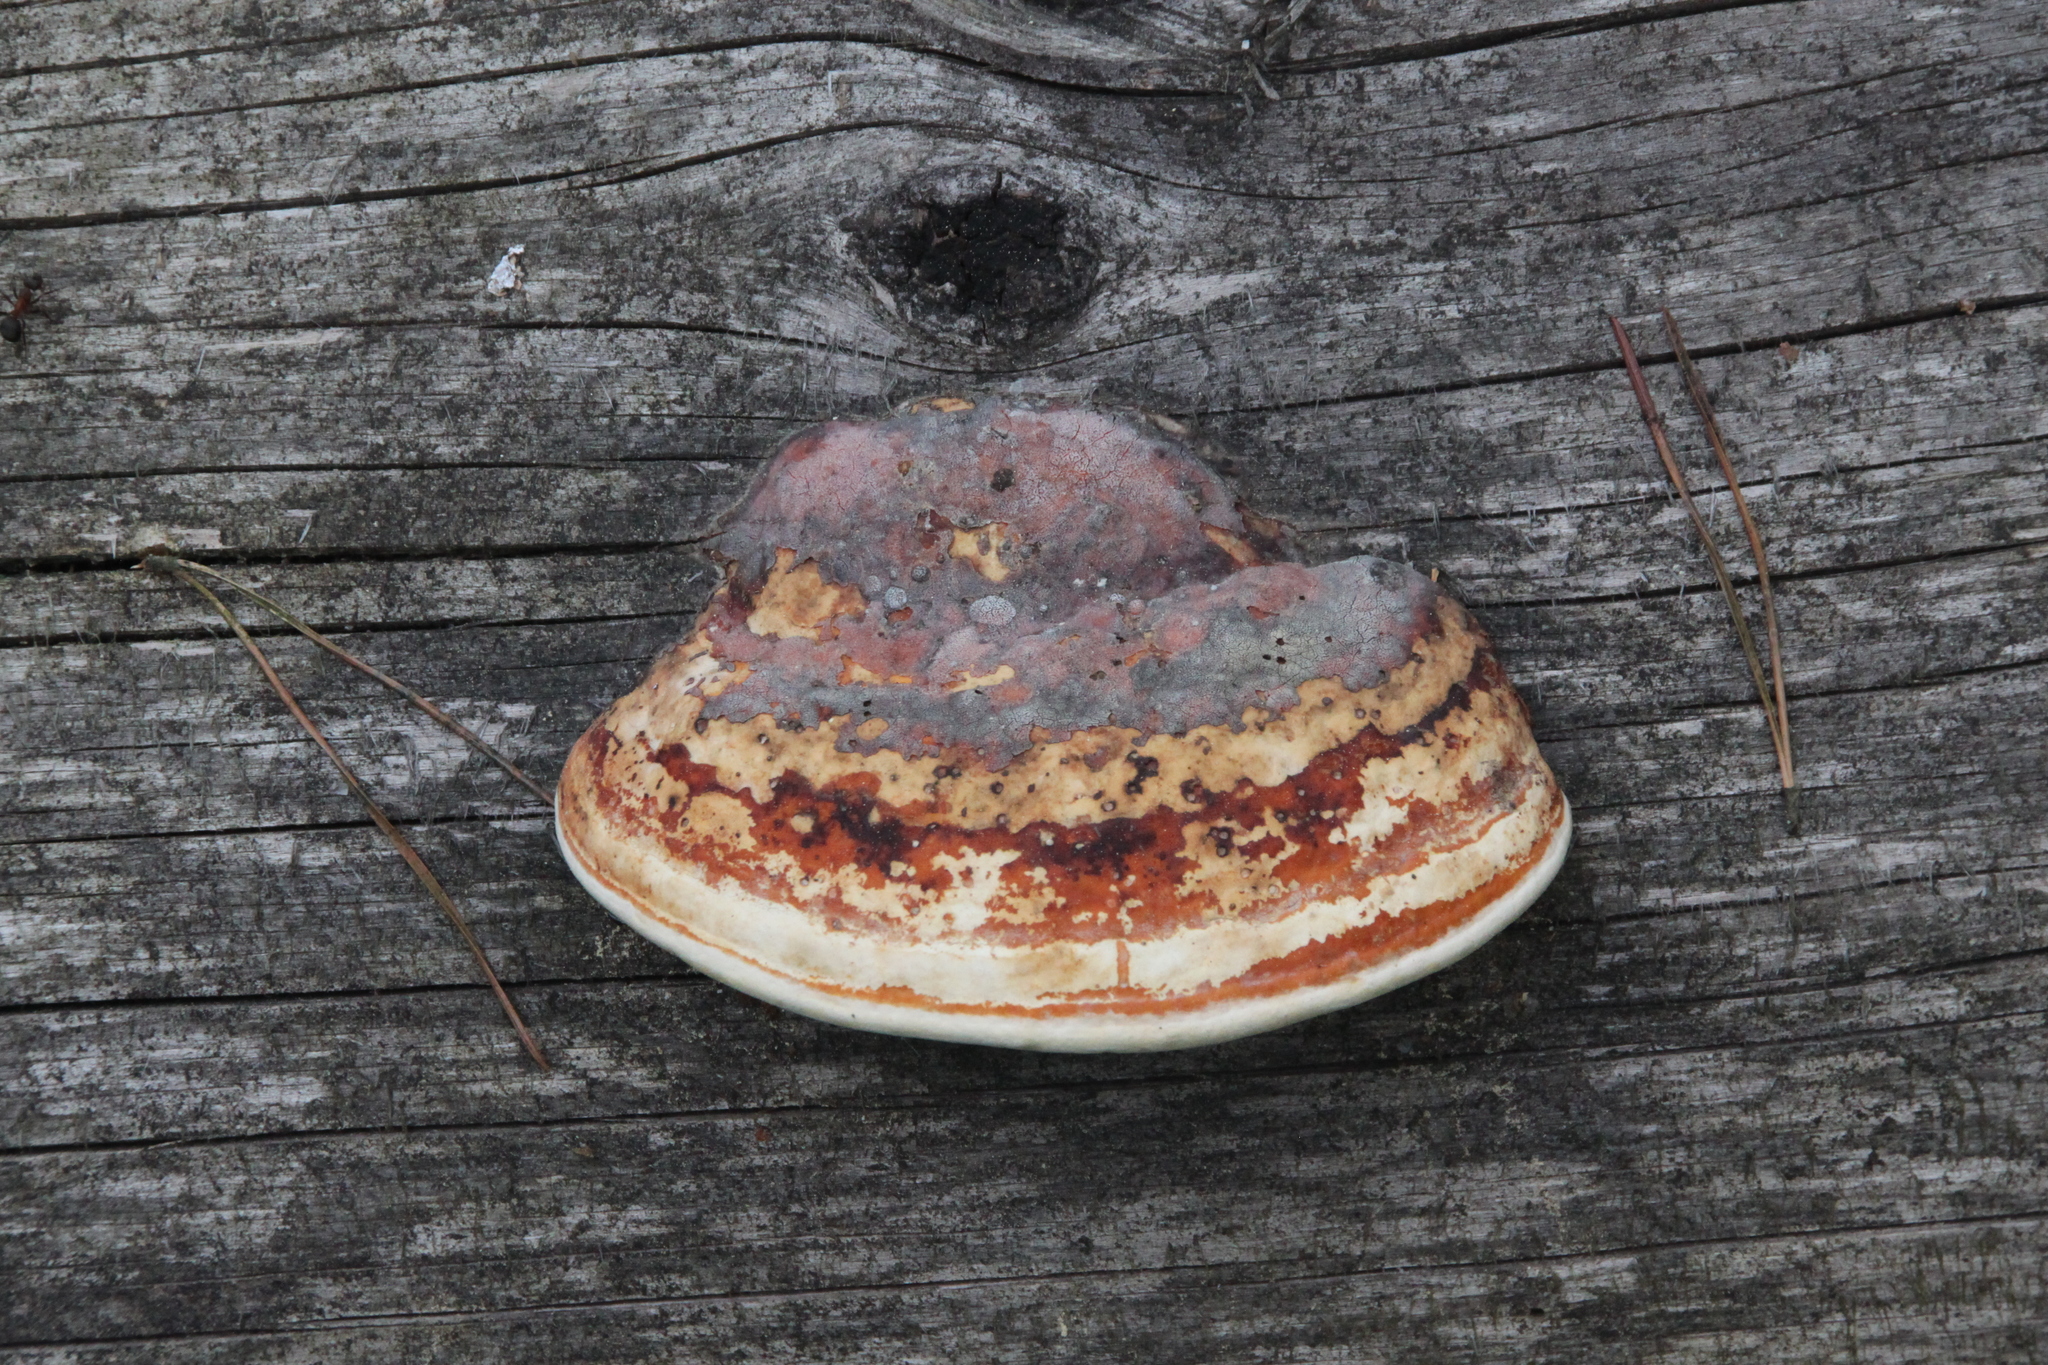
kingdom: Fungi
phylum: Basidiomycota
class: Agaricomycetes
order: Polyporales
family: Fomitopsidaceae
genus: Fomitopsis
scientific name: Fomitopsis pinicola
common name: Red-belted bracket
